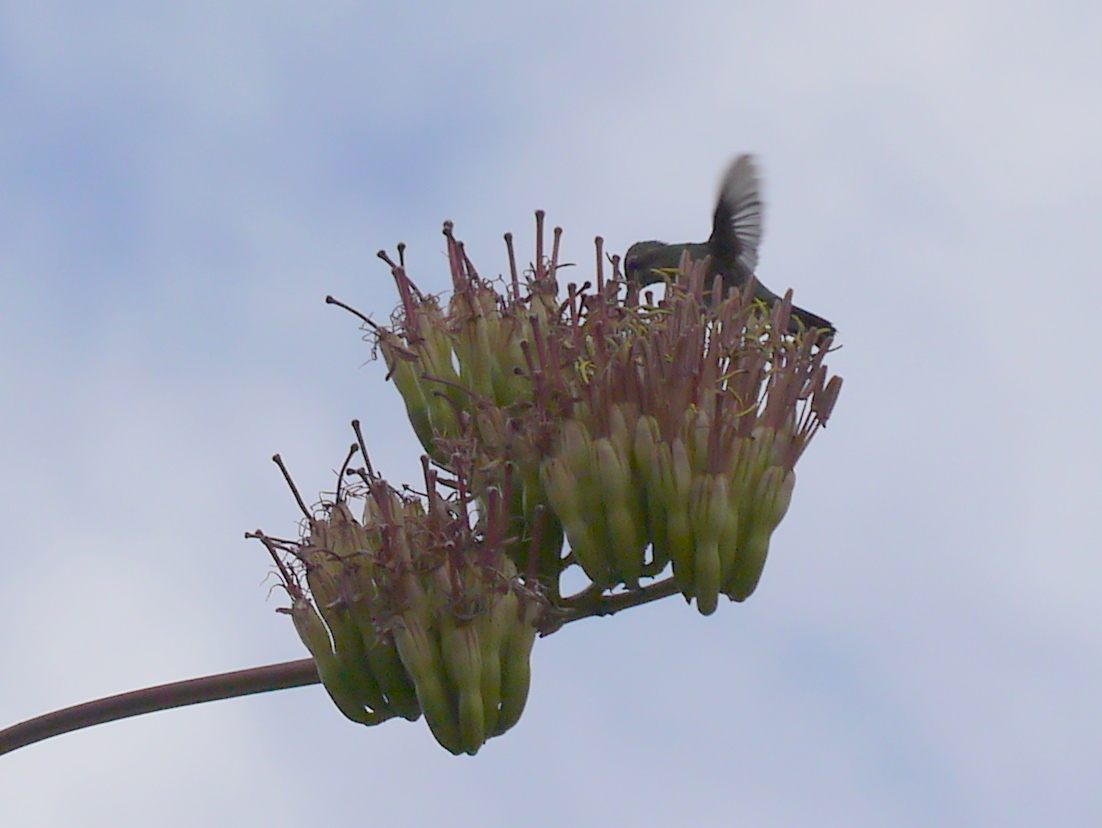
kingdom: Animalia
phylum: Chordata
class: Aves
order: Apodiformes
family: Trochilidae
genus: Cynanthus
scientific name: Cynanthus latirostris
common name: Broad-billed hummingbird
